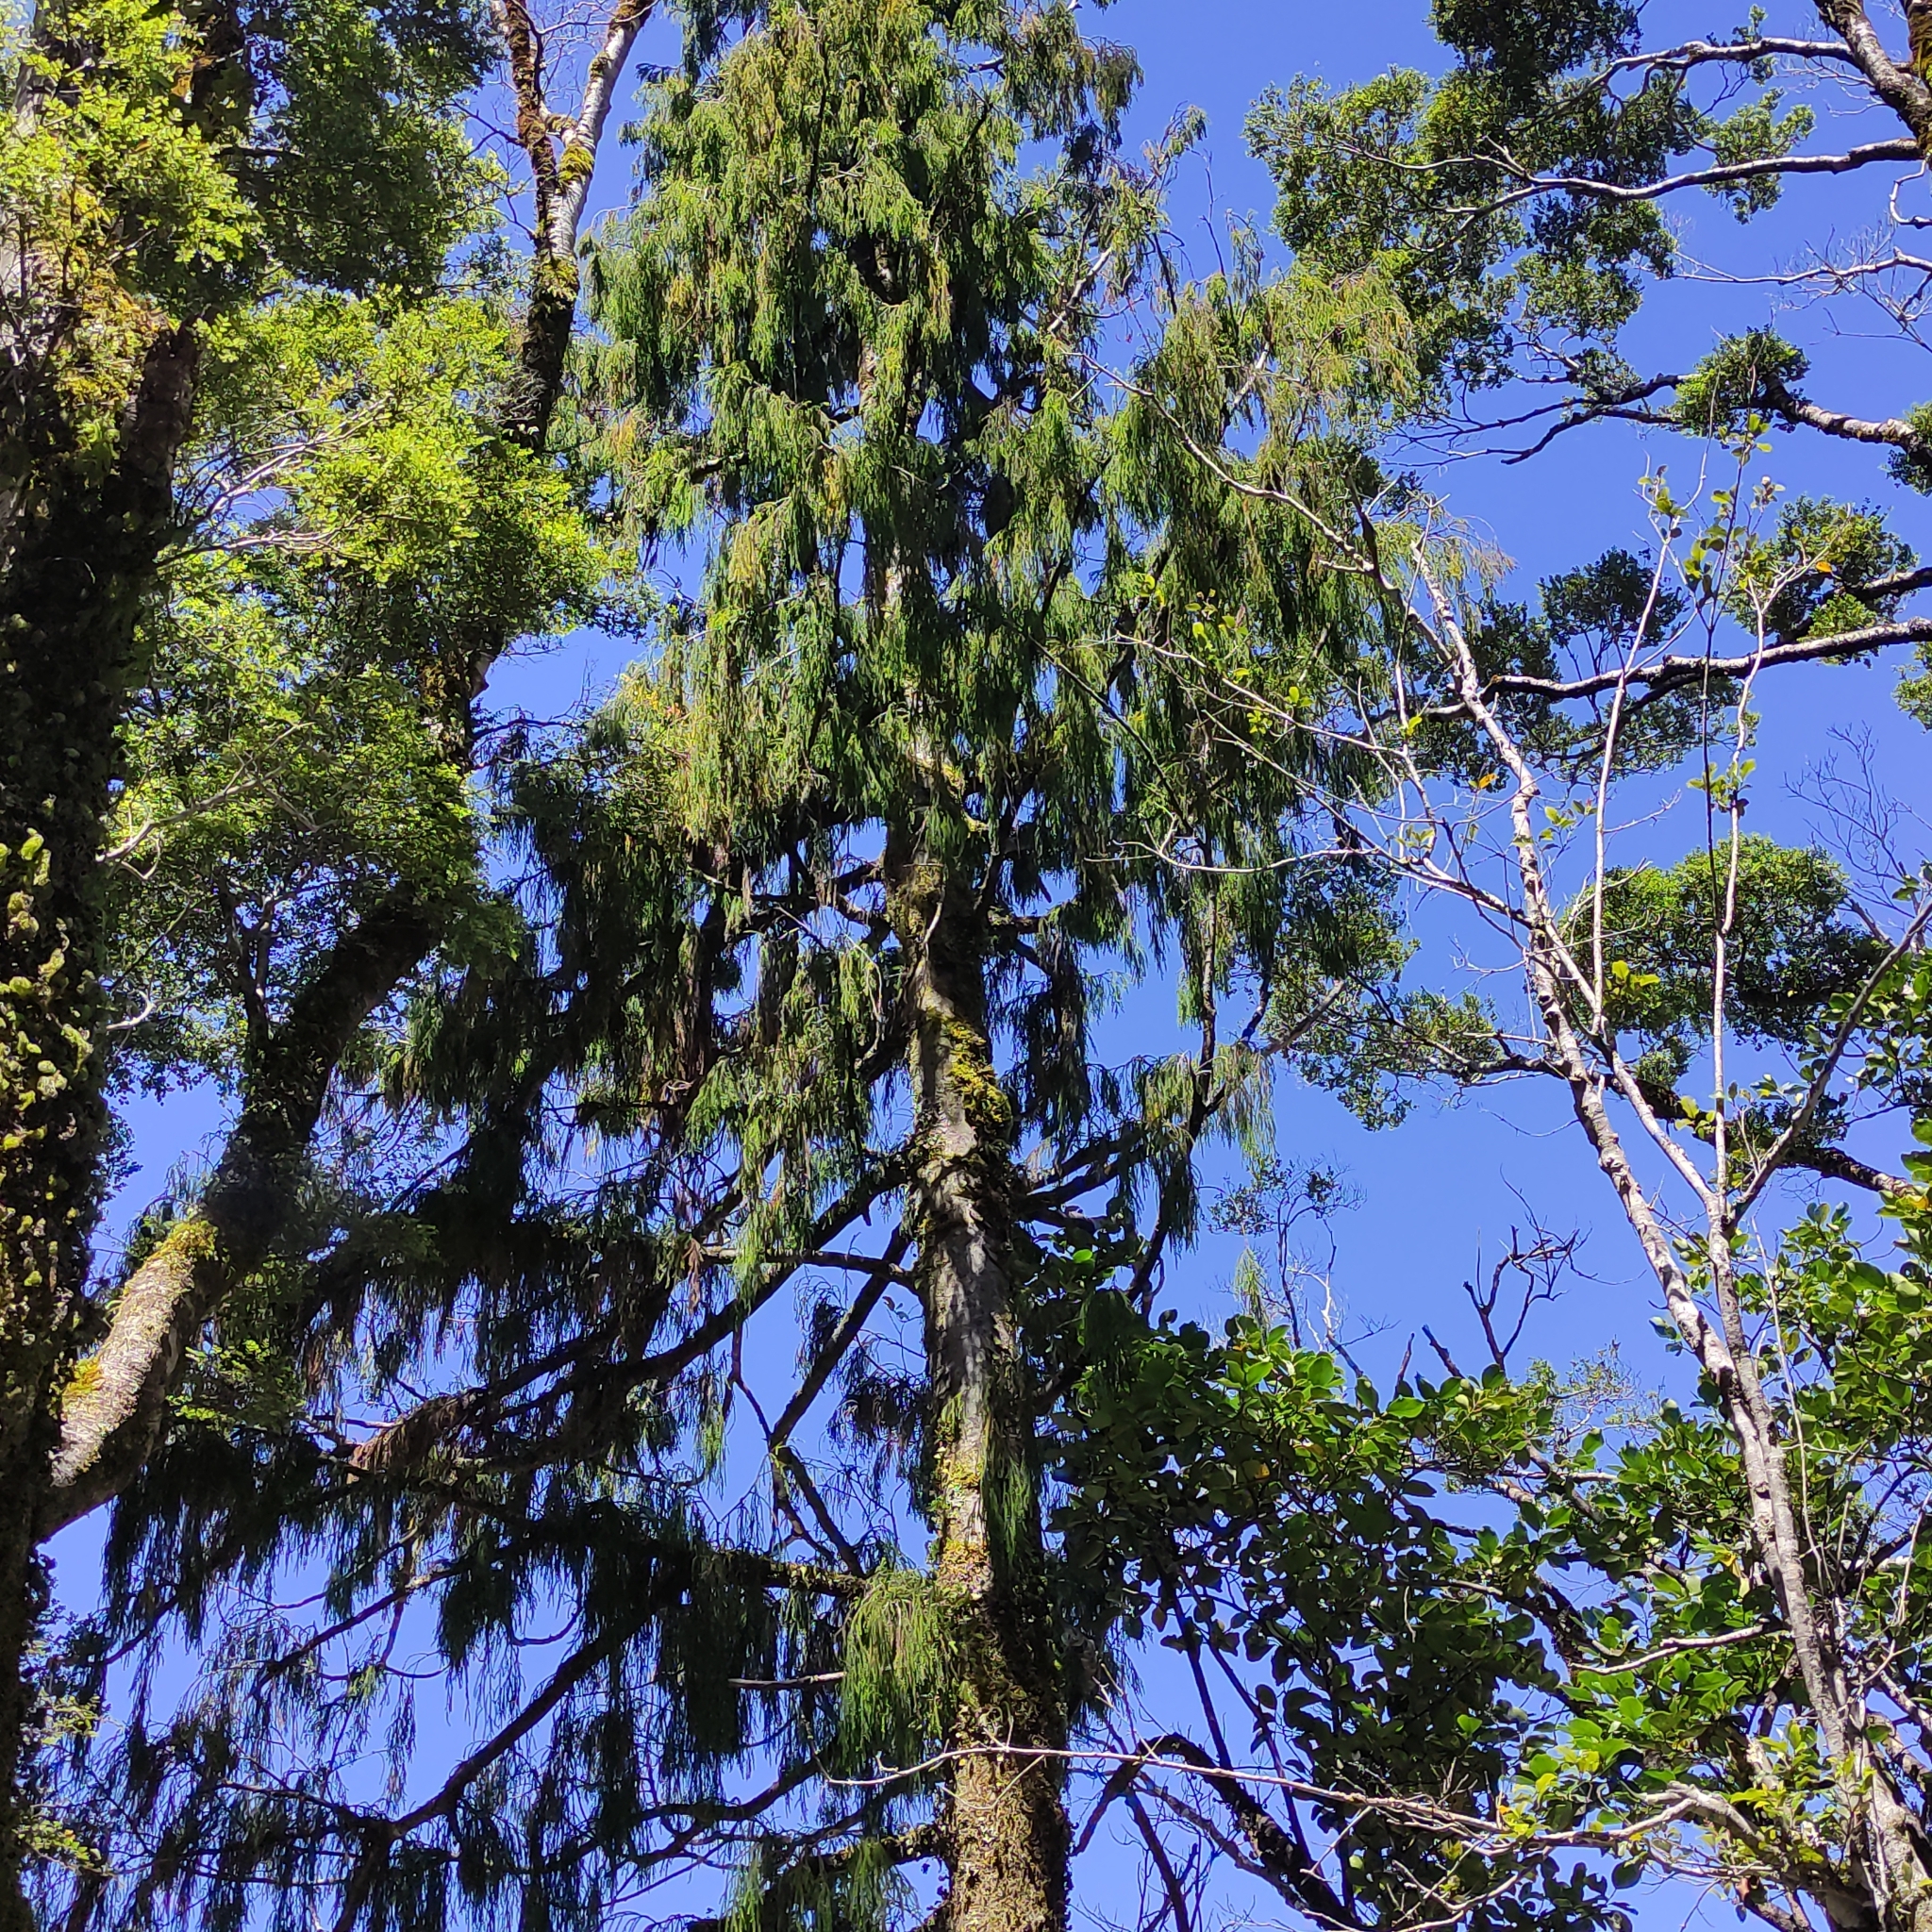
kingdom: Plantae
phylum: Tracheophyta
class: Pinopsida
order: Pinales
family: Podocarpaceae
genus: Dacrydium
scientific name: Dacrydium cupressinum
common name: Red pine
